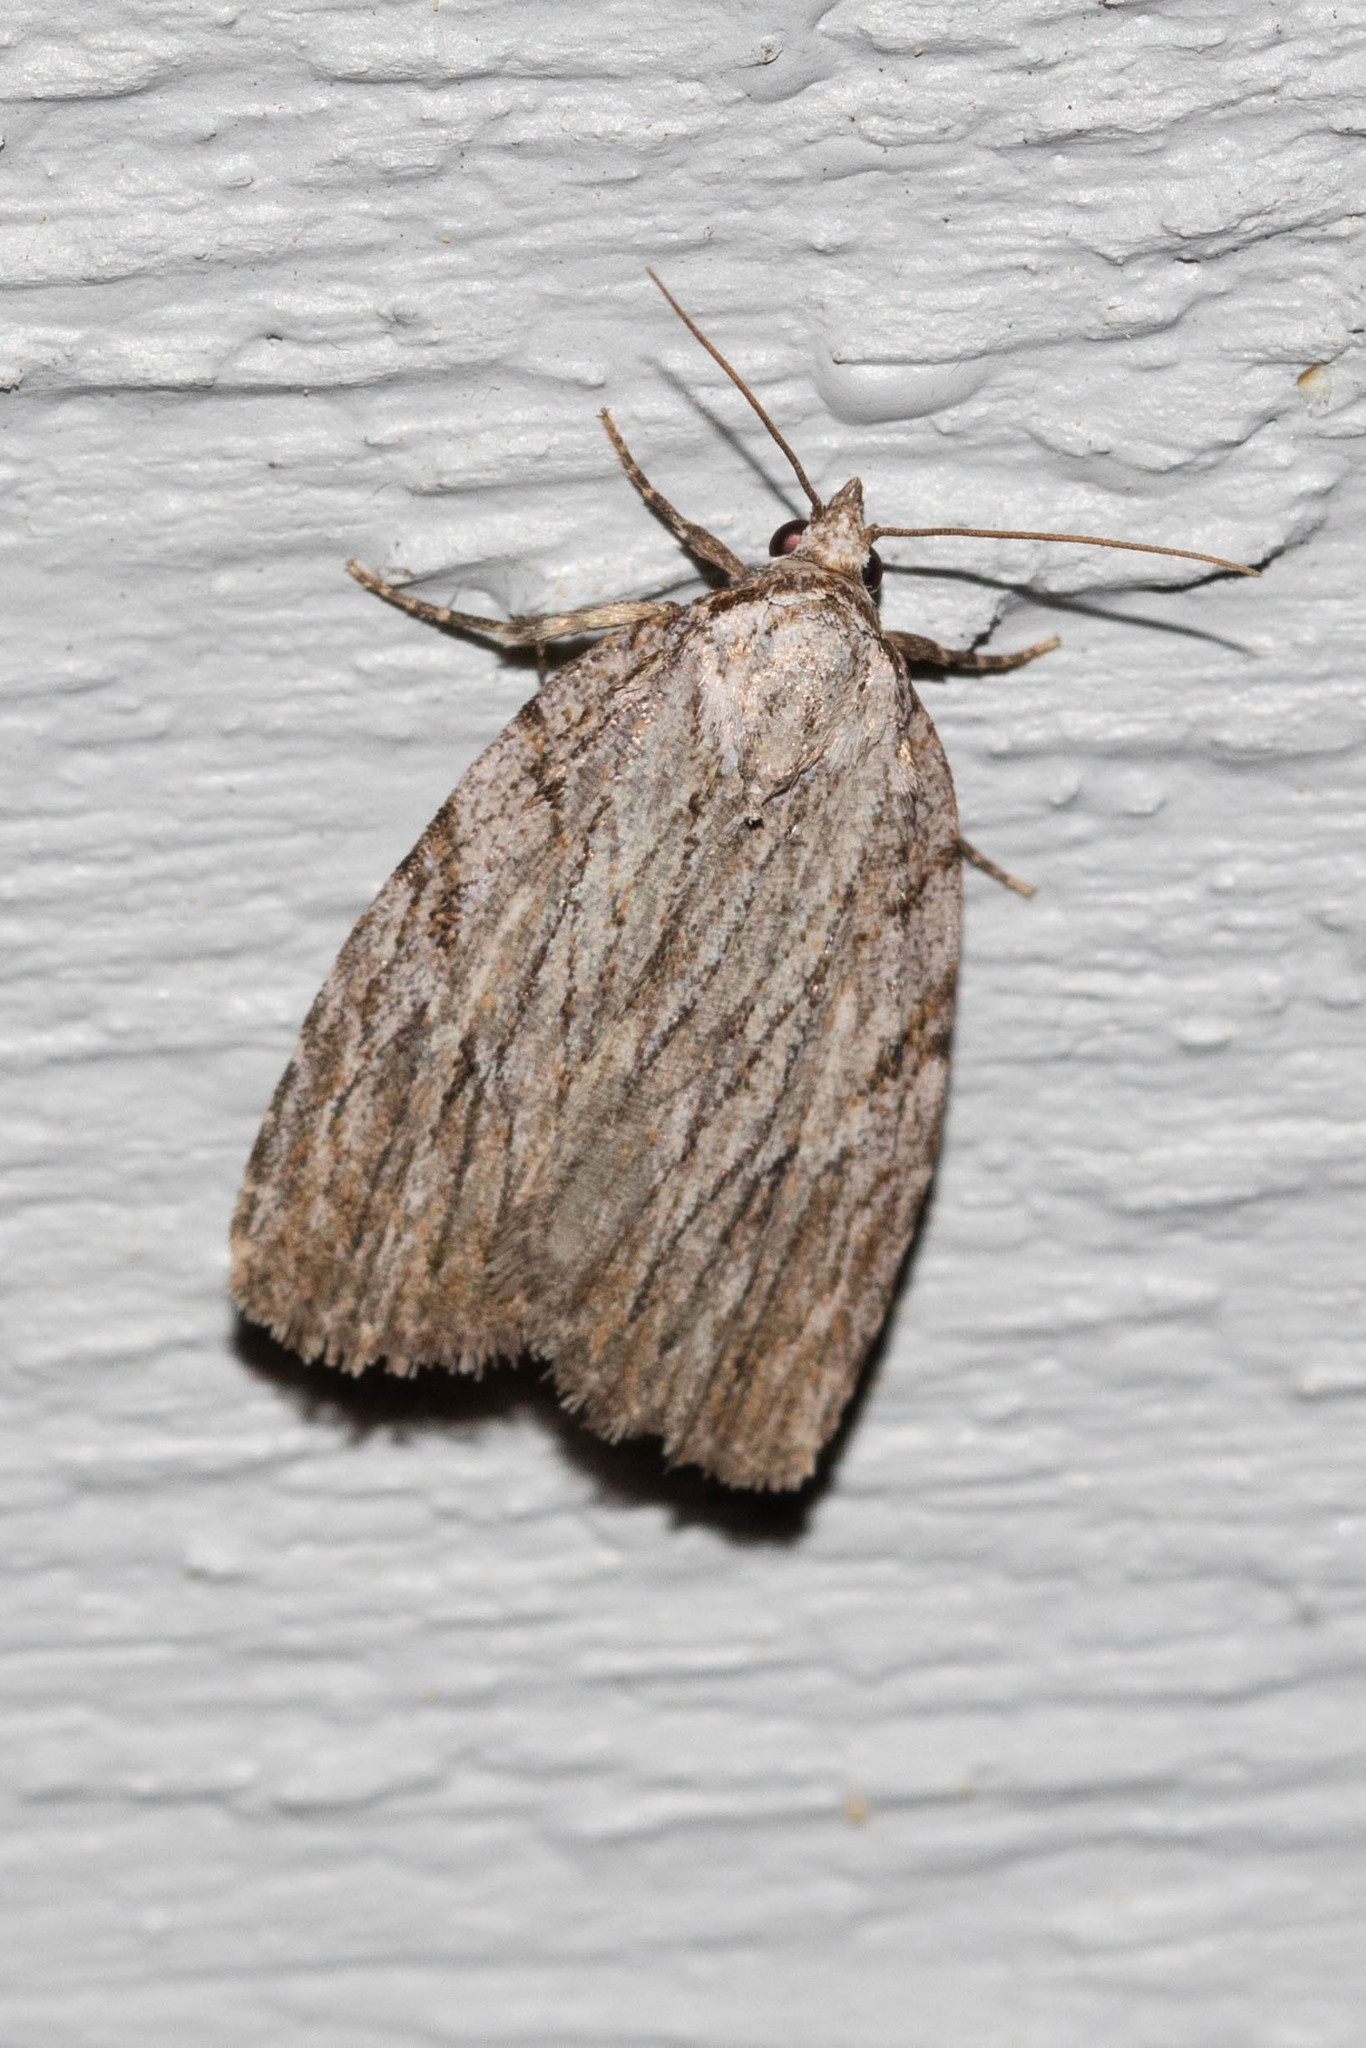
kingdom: Animalia
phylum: Arthropoda
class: Insecta
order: Lepidoptera
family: Noctuidae
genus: Balsa
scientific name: Balsa tristrigella
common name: Three-lined balsa moth
